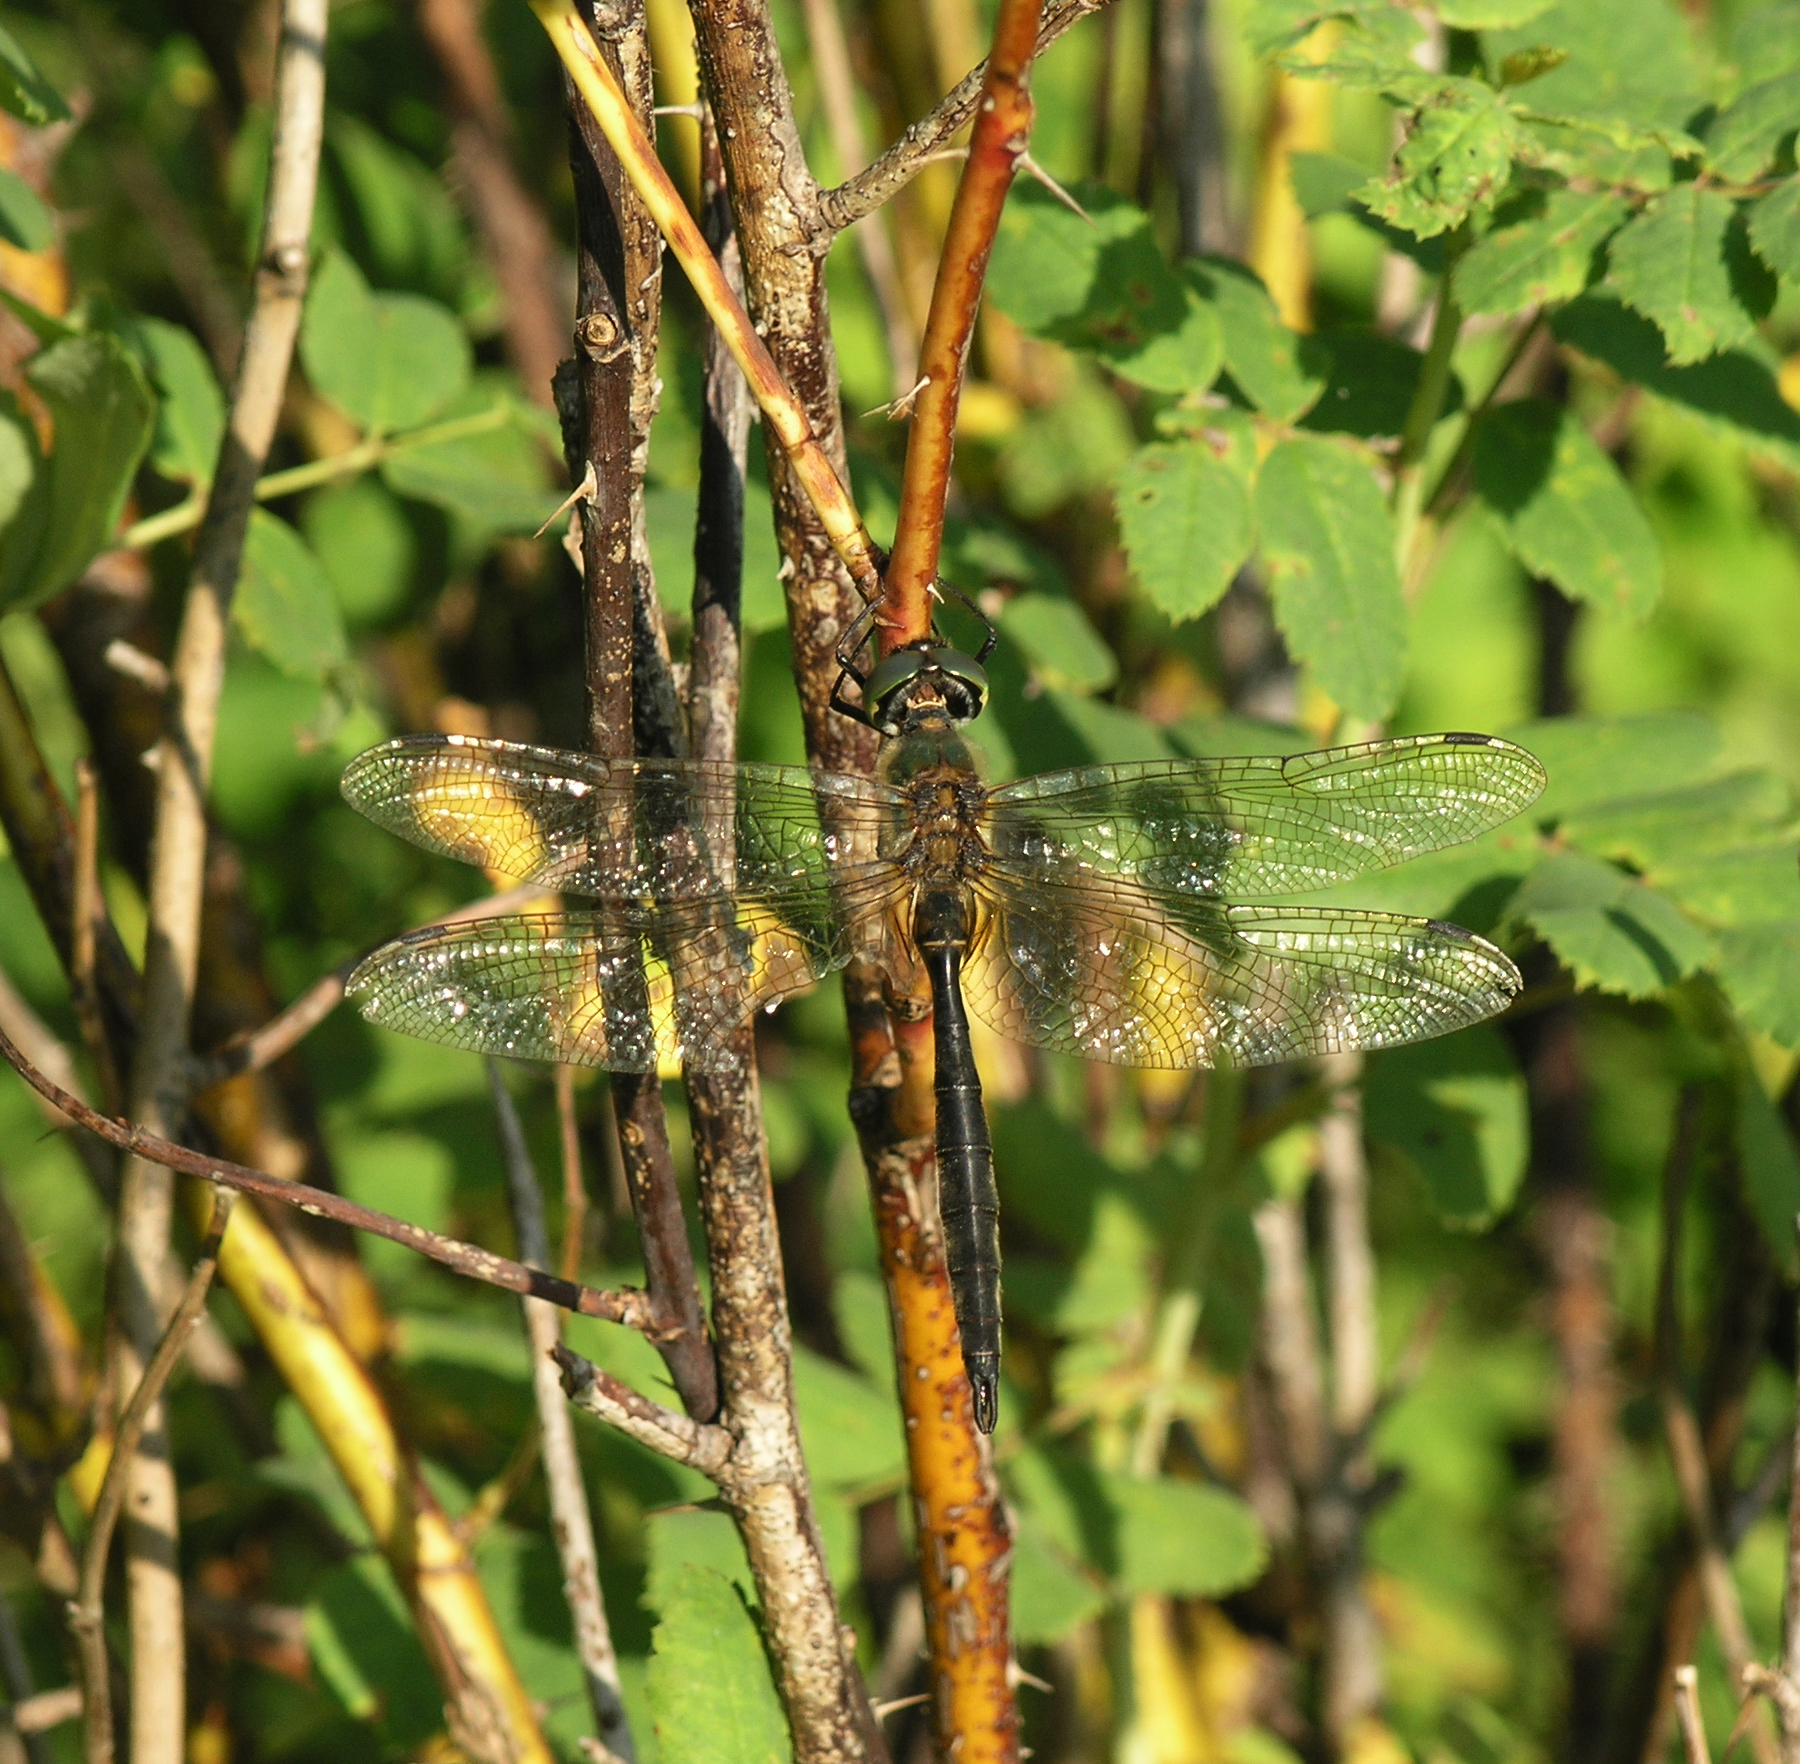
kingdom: Animalia
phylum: Arthropoda
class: Insecta
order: Odonata
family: Corduliidae
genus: Somatochlora
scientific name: Somatochlora flavomaculata
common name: Yellow-spotted emerald
